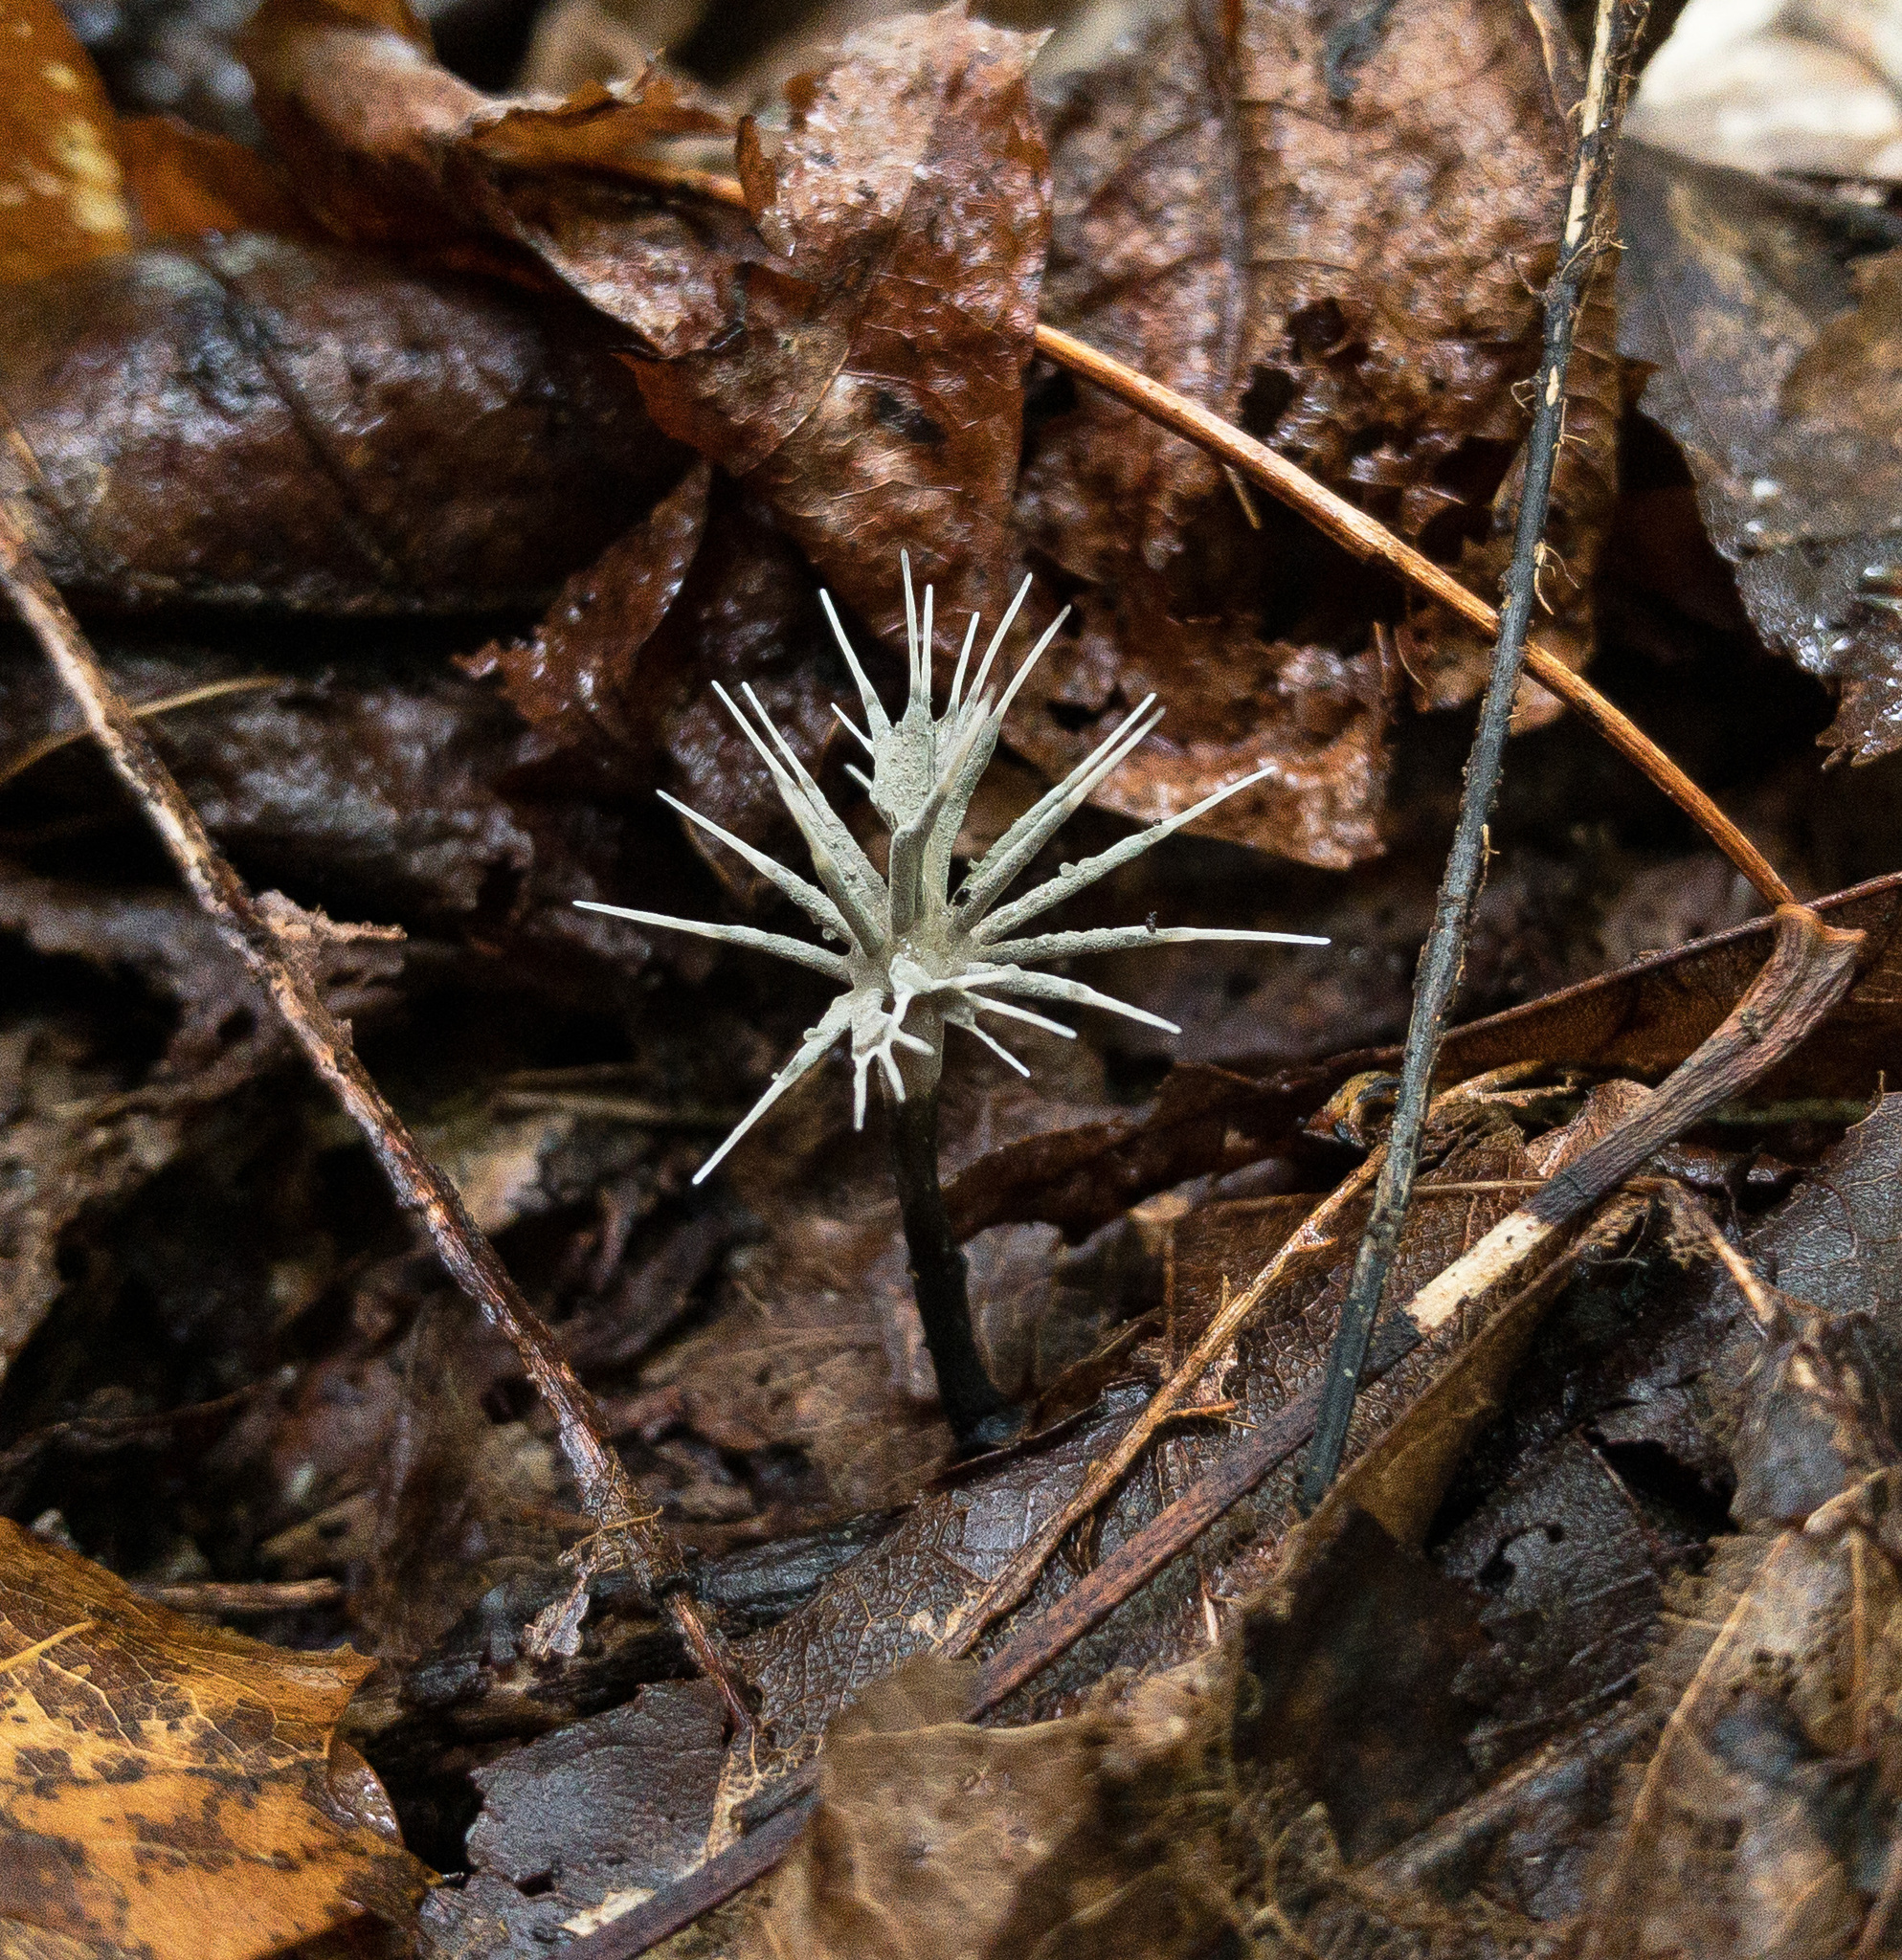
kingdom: Fungi
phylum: Ascomycota
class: Sordariomycetes
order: Xylariales
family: Xylariaceae
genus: Xylaria
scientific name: Xylaria tentaculata
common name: Fairy sparklers
